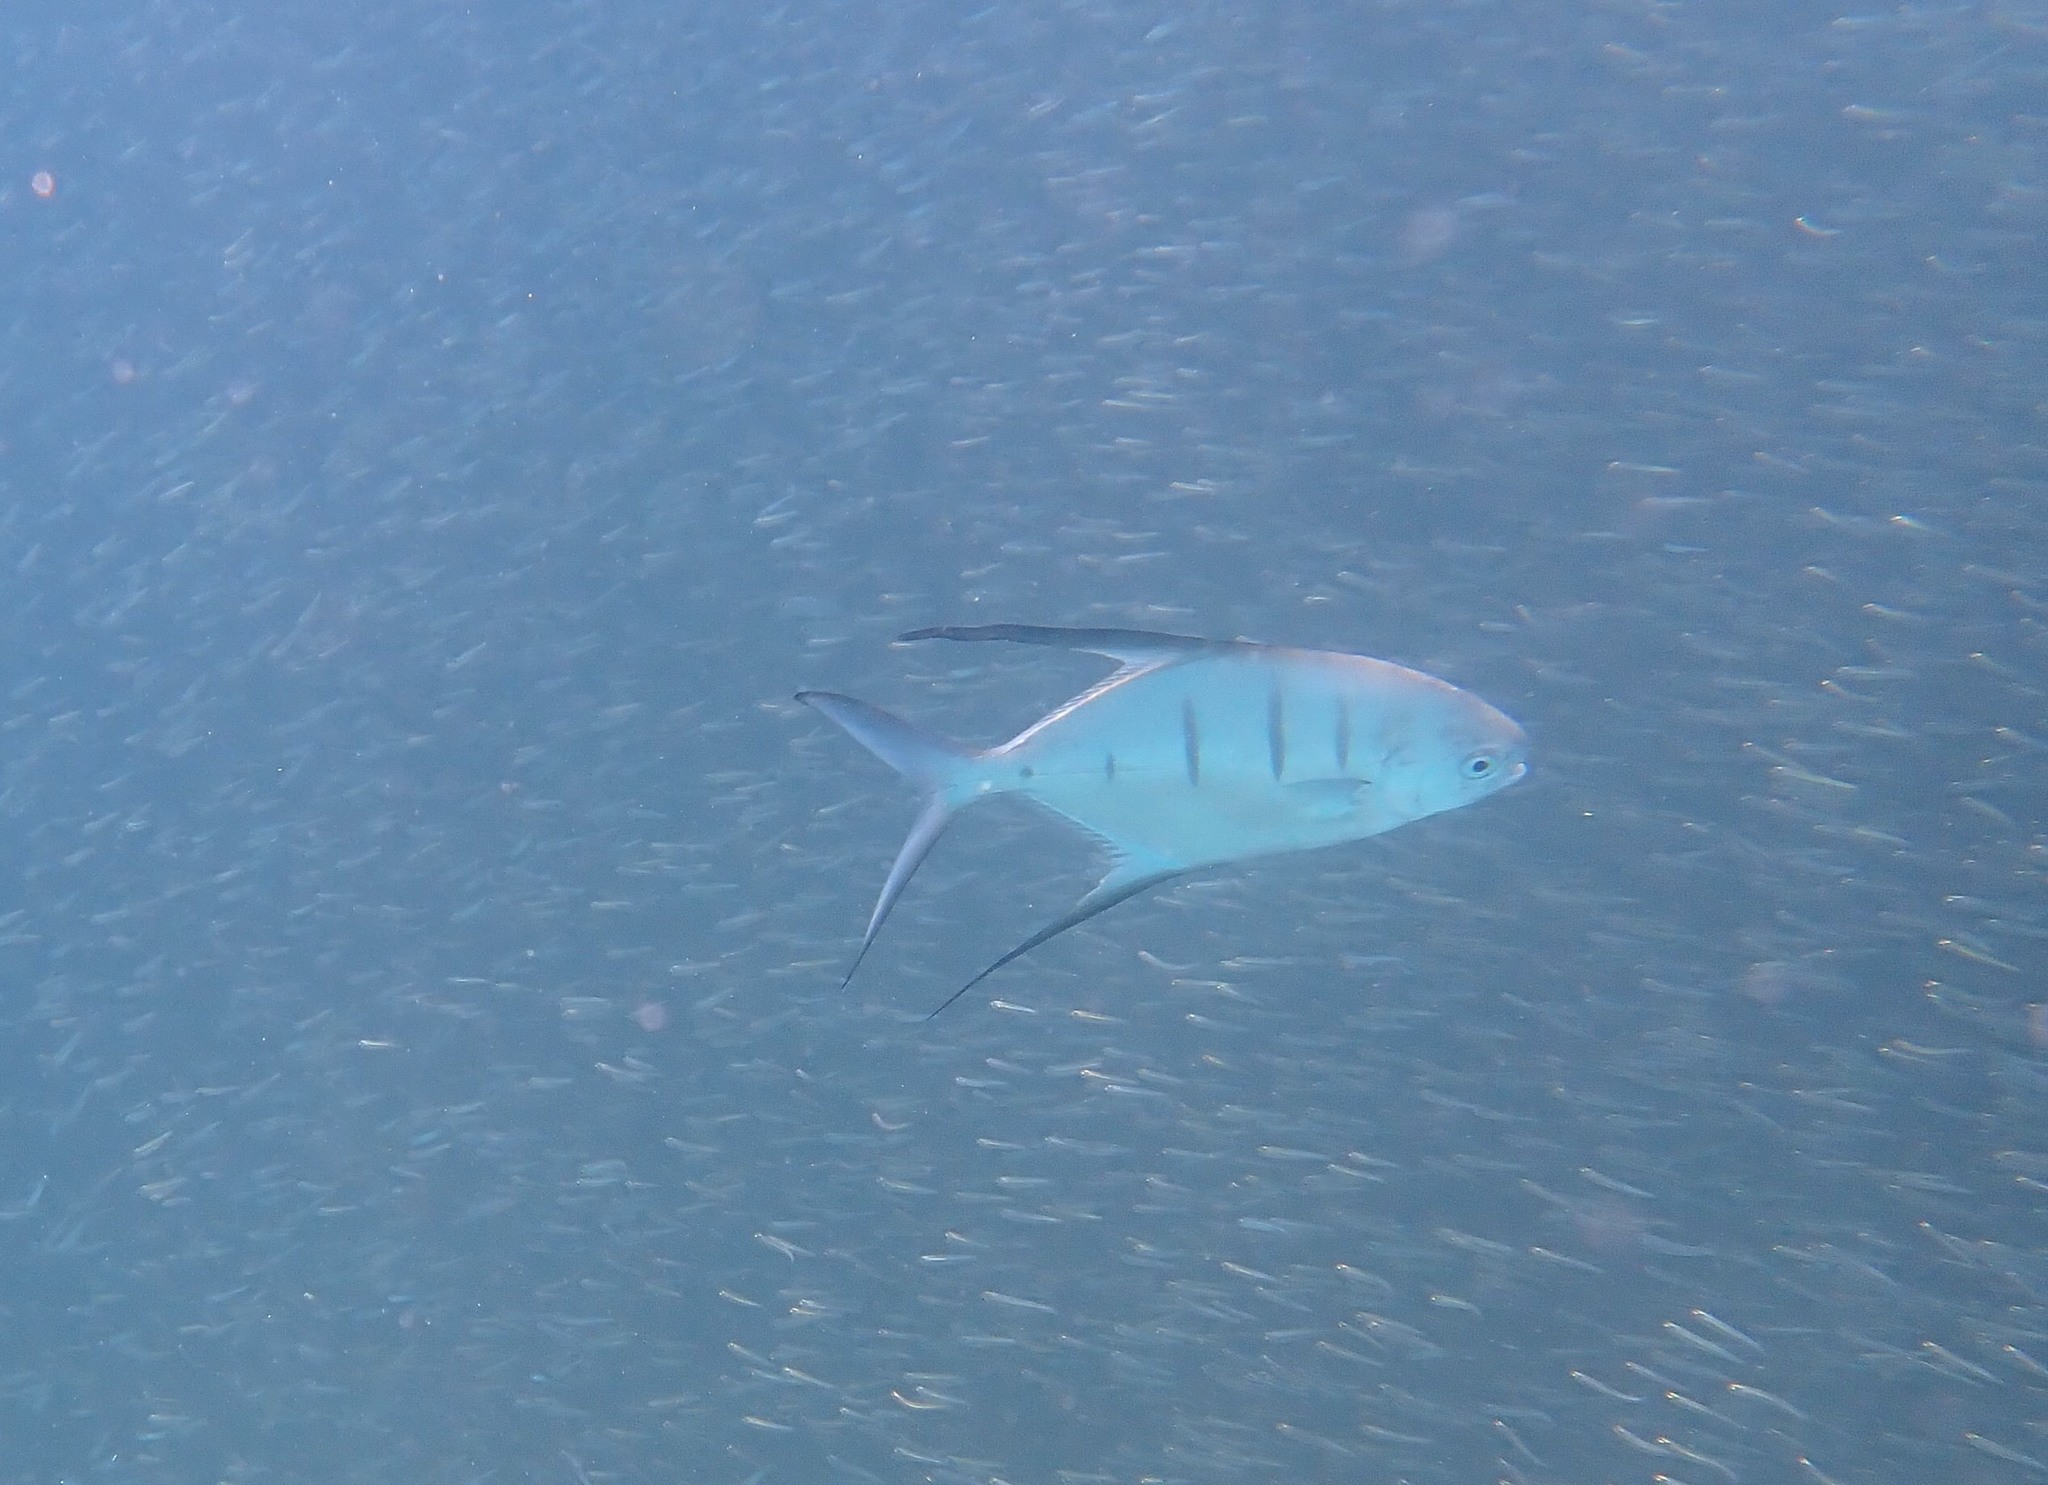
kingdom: Animalia
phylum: Chordata
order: Perciformes
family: Carangidae
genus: Trachinotus
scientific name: Trachinotus goodei
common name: Palometa
